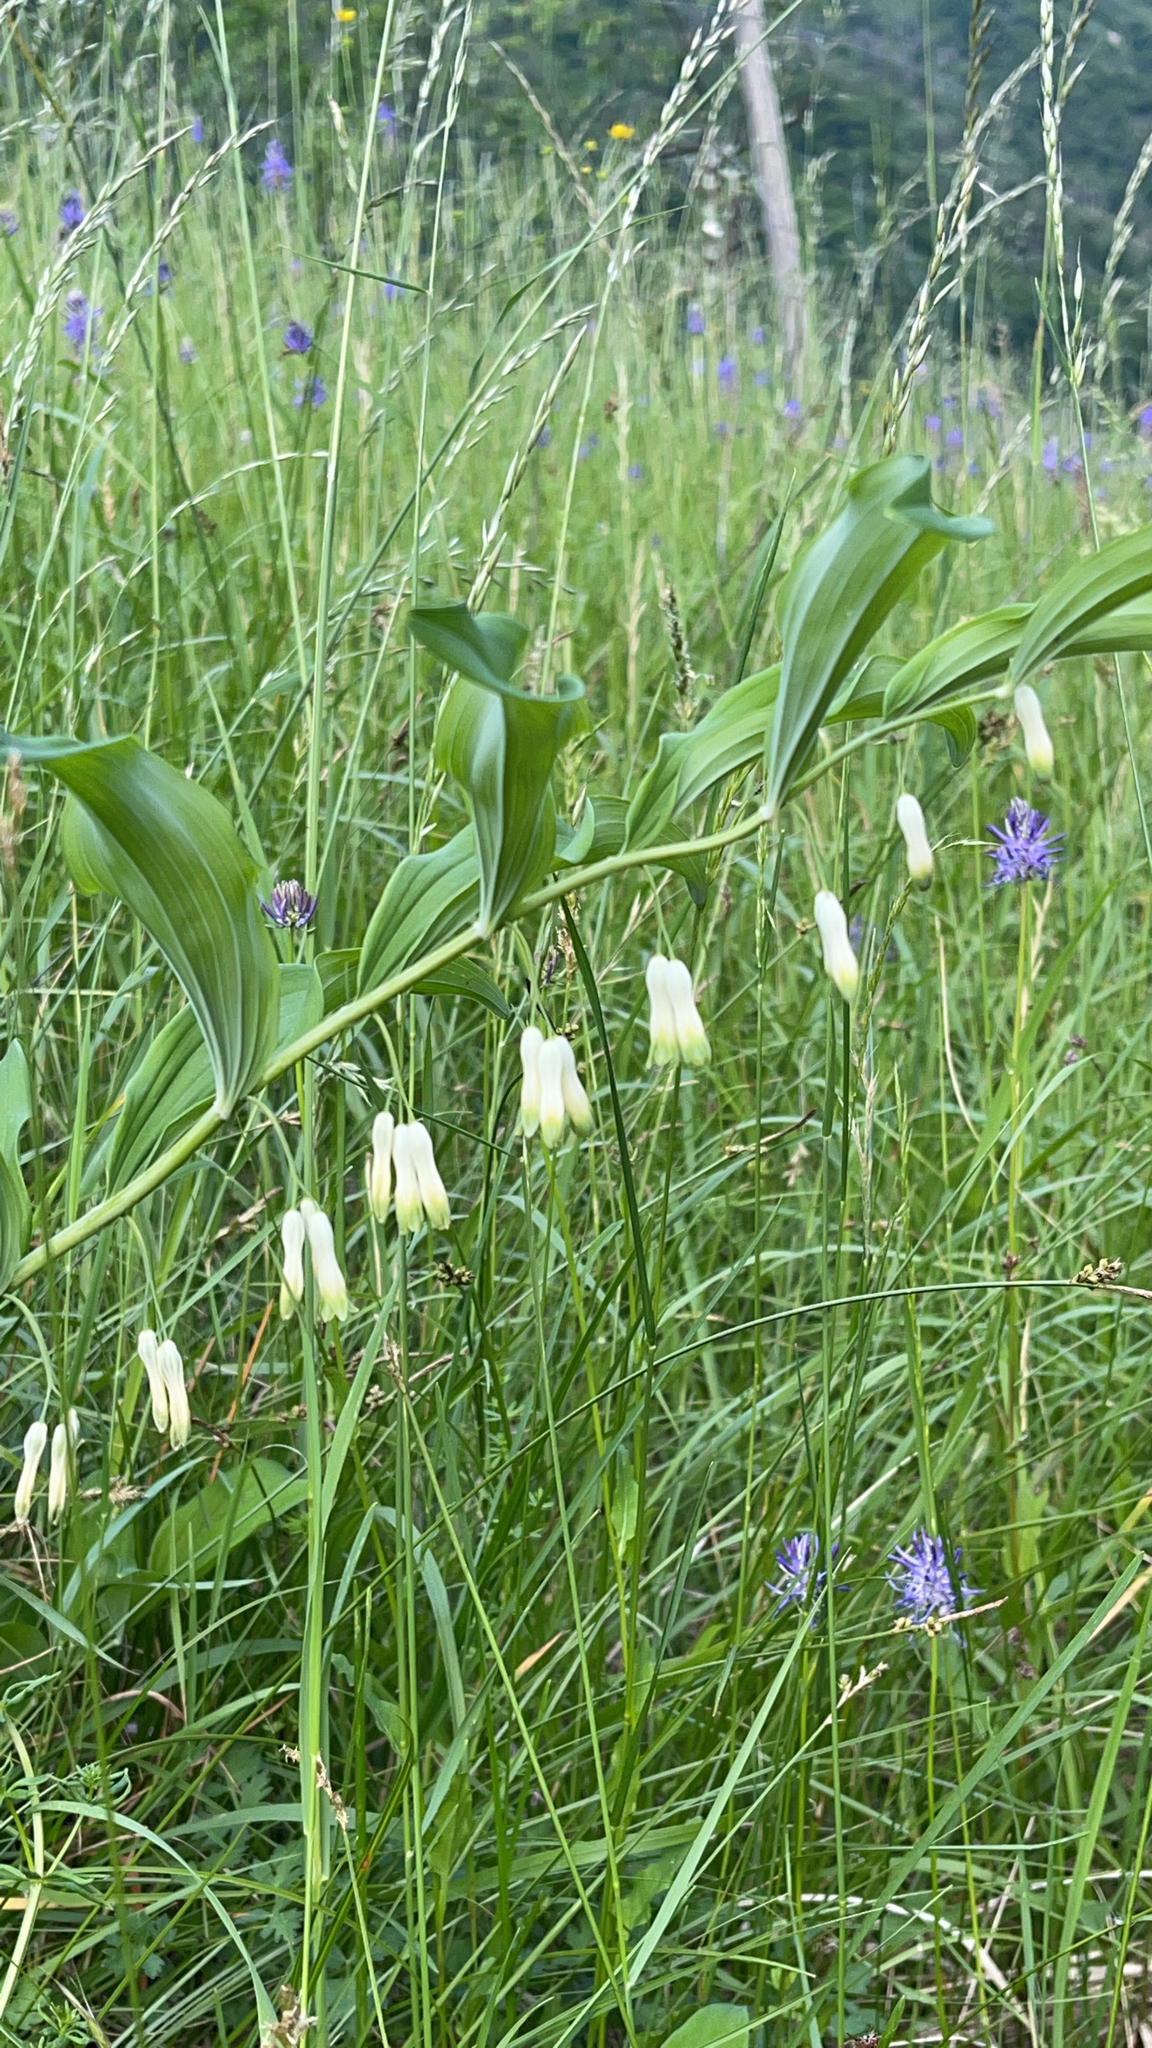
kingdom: Plantae
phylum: Tracheophyta
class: Liliopsida
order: Asparagales
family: Asparagaceae
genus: Polygonatum
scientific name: Polygonatum multiflorum
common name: Solomon's-seal
